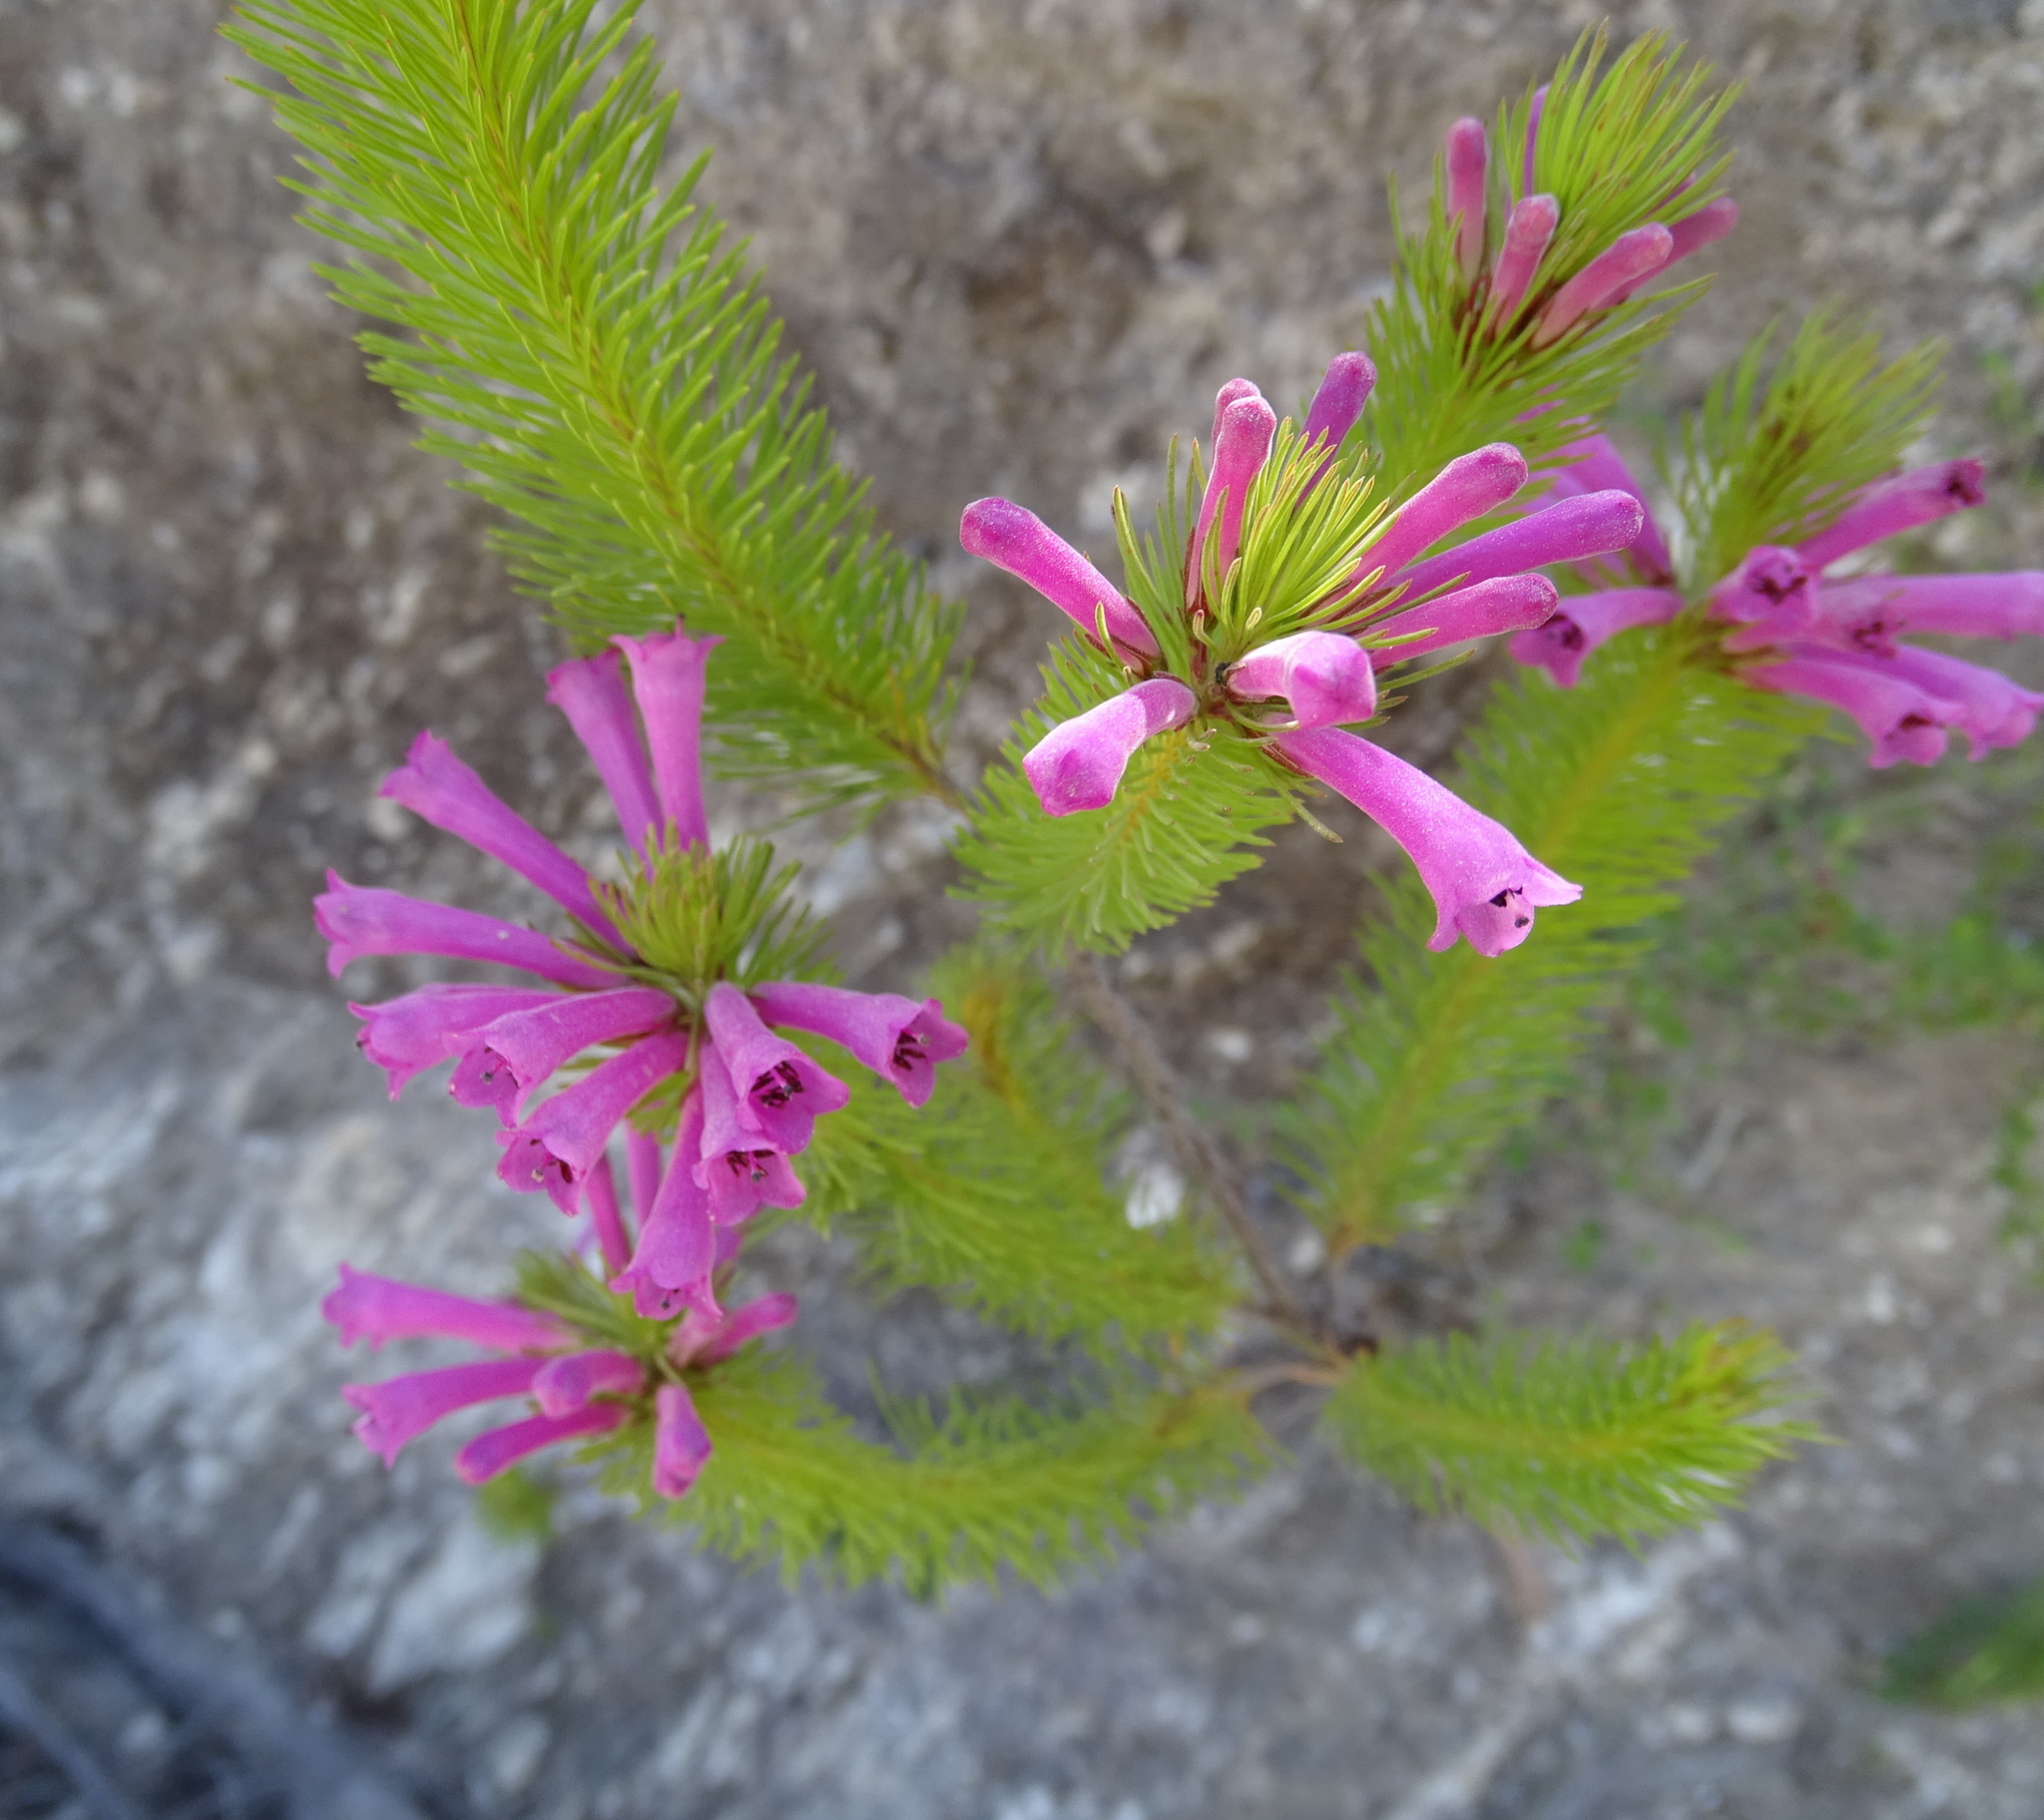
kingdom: Plantae
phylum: Tracheophyta
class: Magnoliopsida
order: Ericales
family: Ericaceae
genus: Erica
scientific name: Erica vestita
